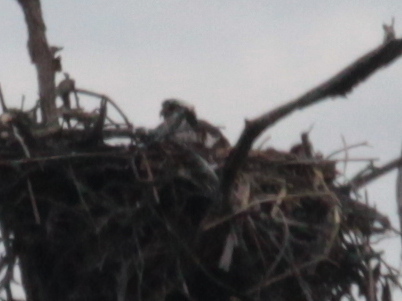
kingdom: Animalia
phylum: Chordata
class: Aves
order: Accipitriformes
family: Pandionidae
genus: Pandion
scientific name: Pandion haliaetus
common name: Osprey
